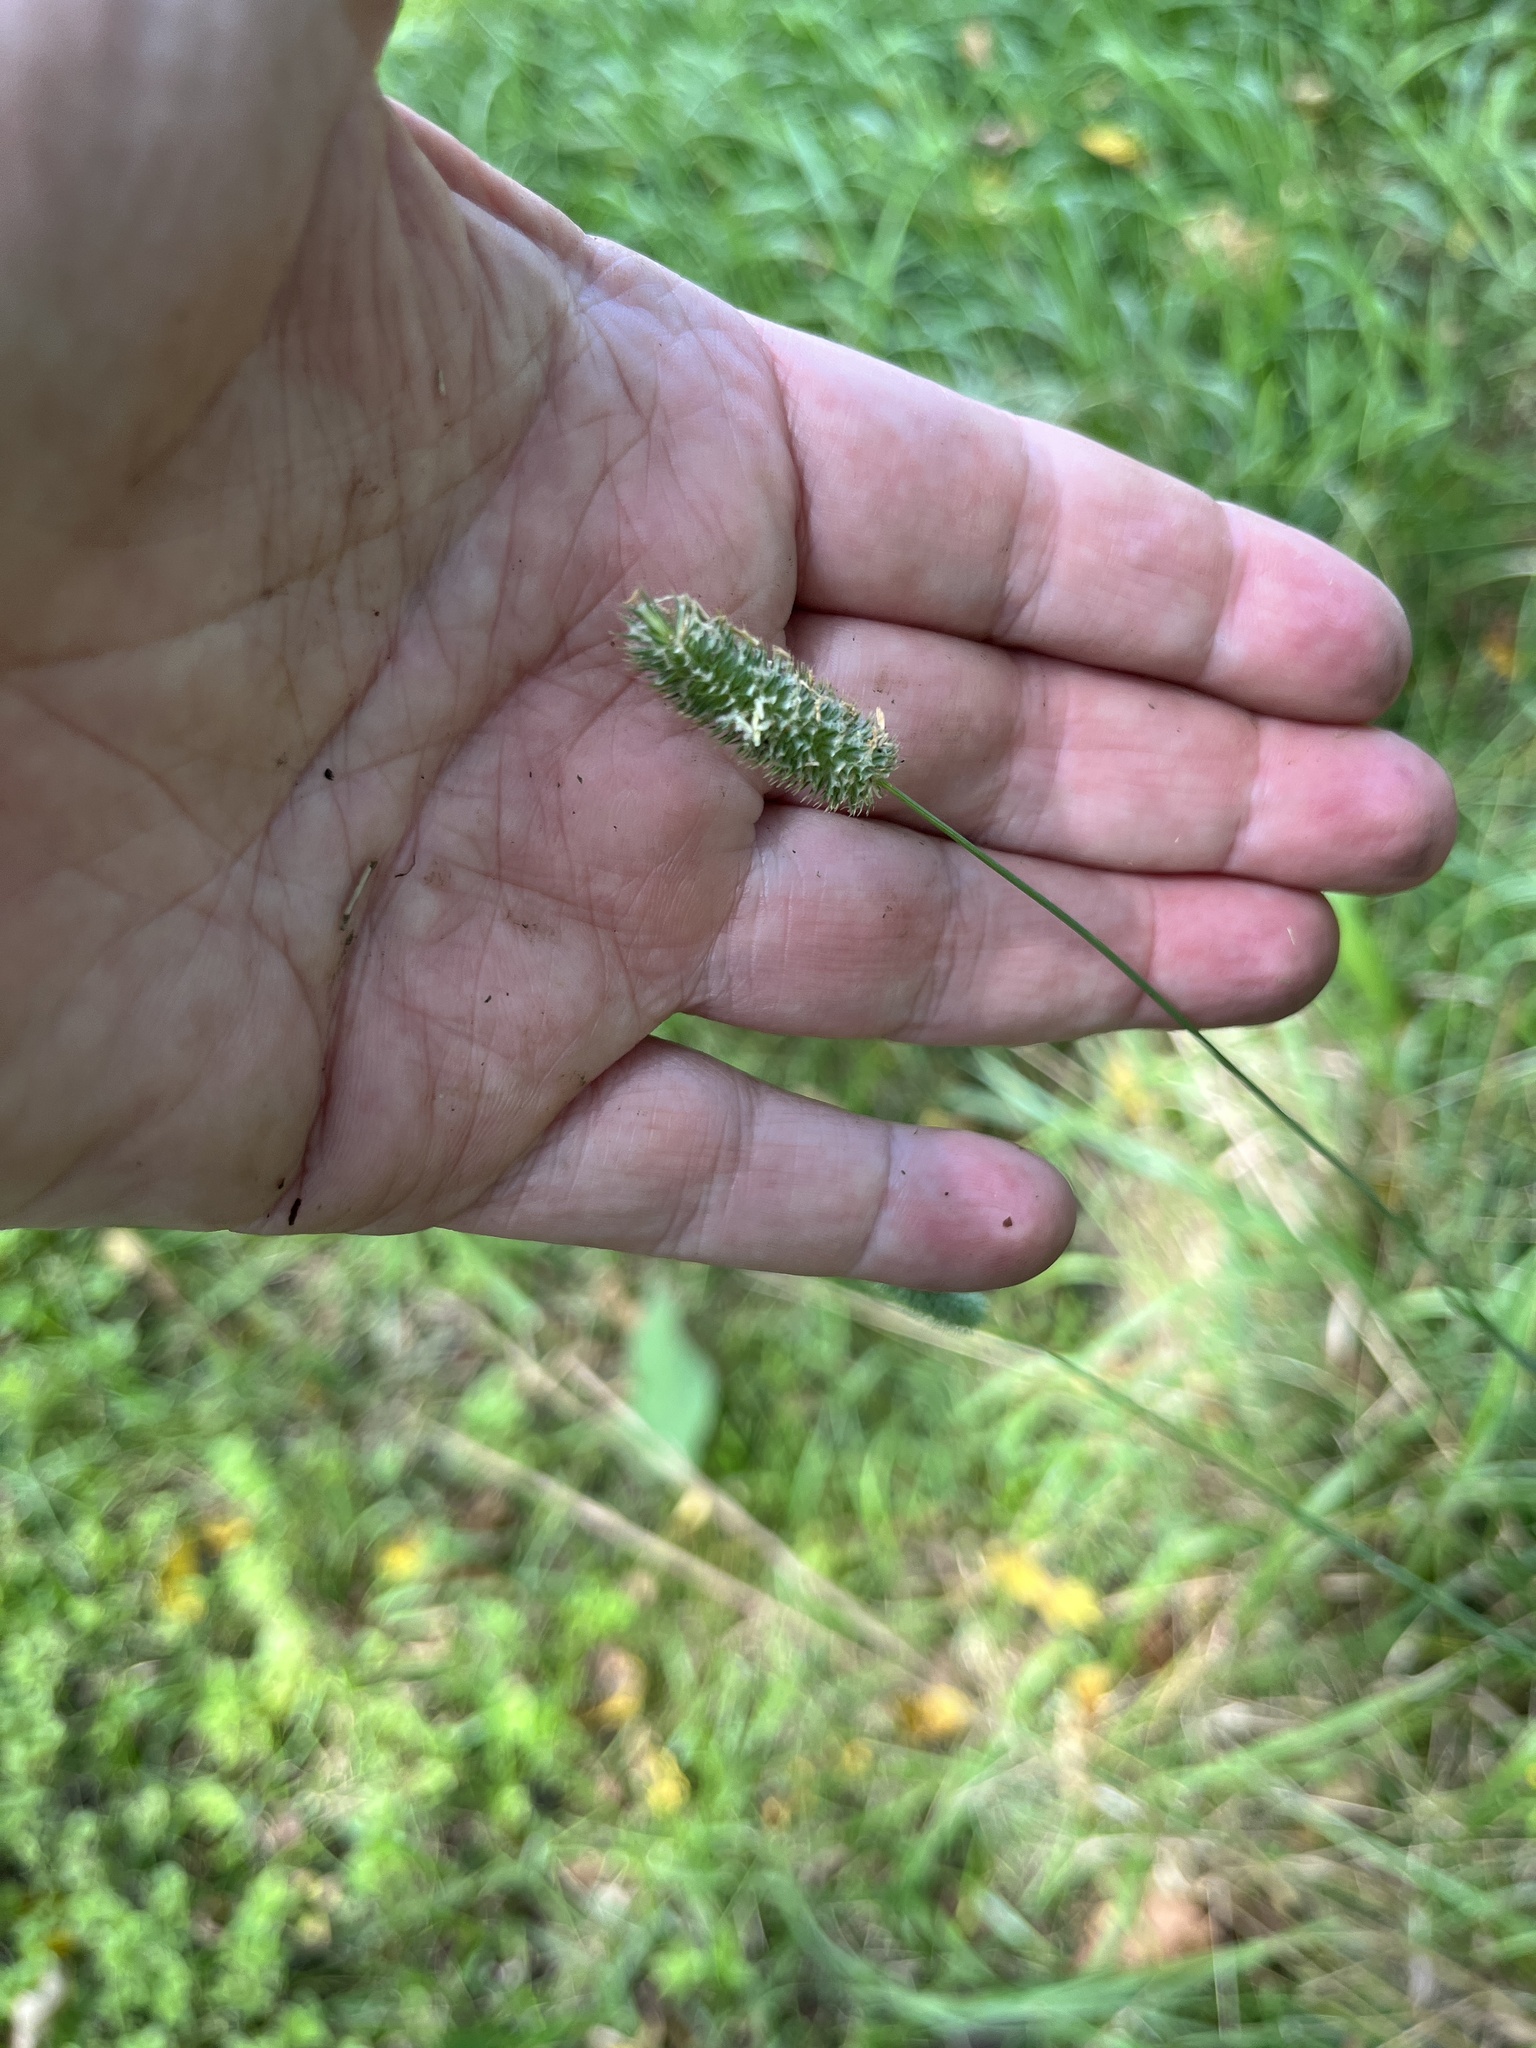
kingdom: Plantae
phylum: Tracheophyta
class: Liliopsida
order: Poales
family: Poaceae
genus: Phleum
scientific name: Phleum pratense
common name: Timothy grass
